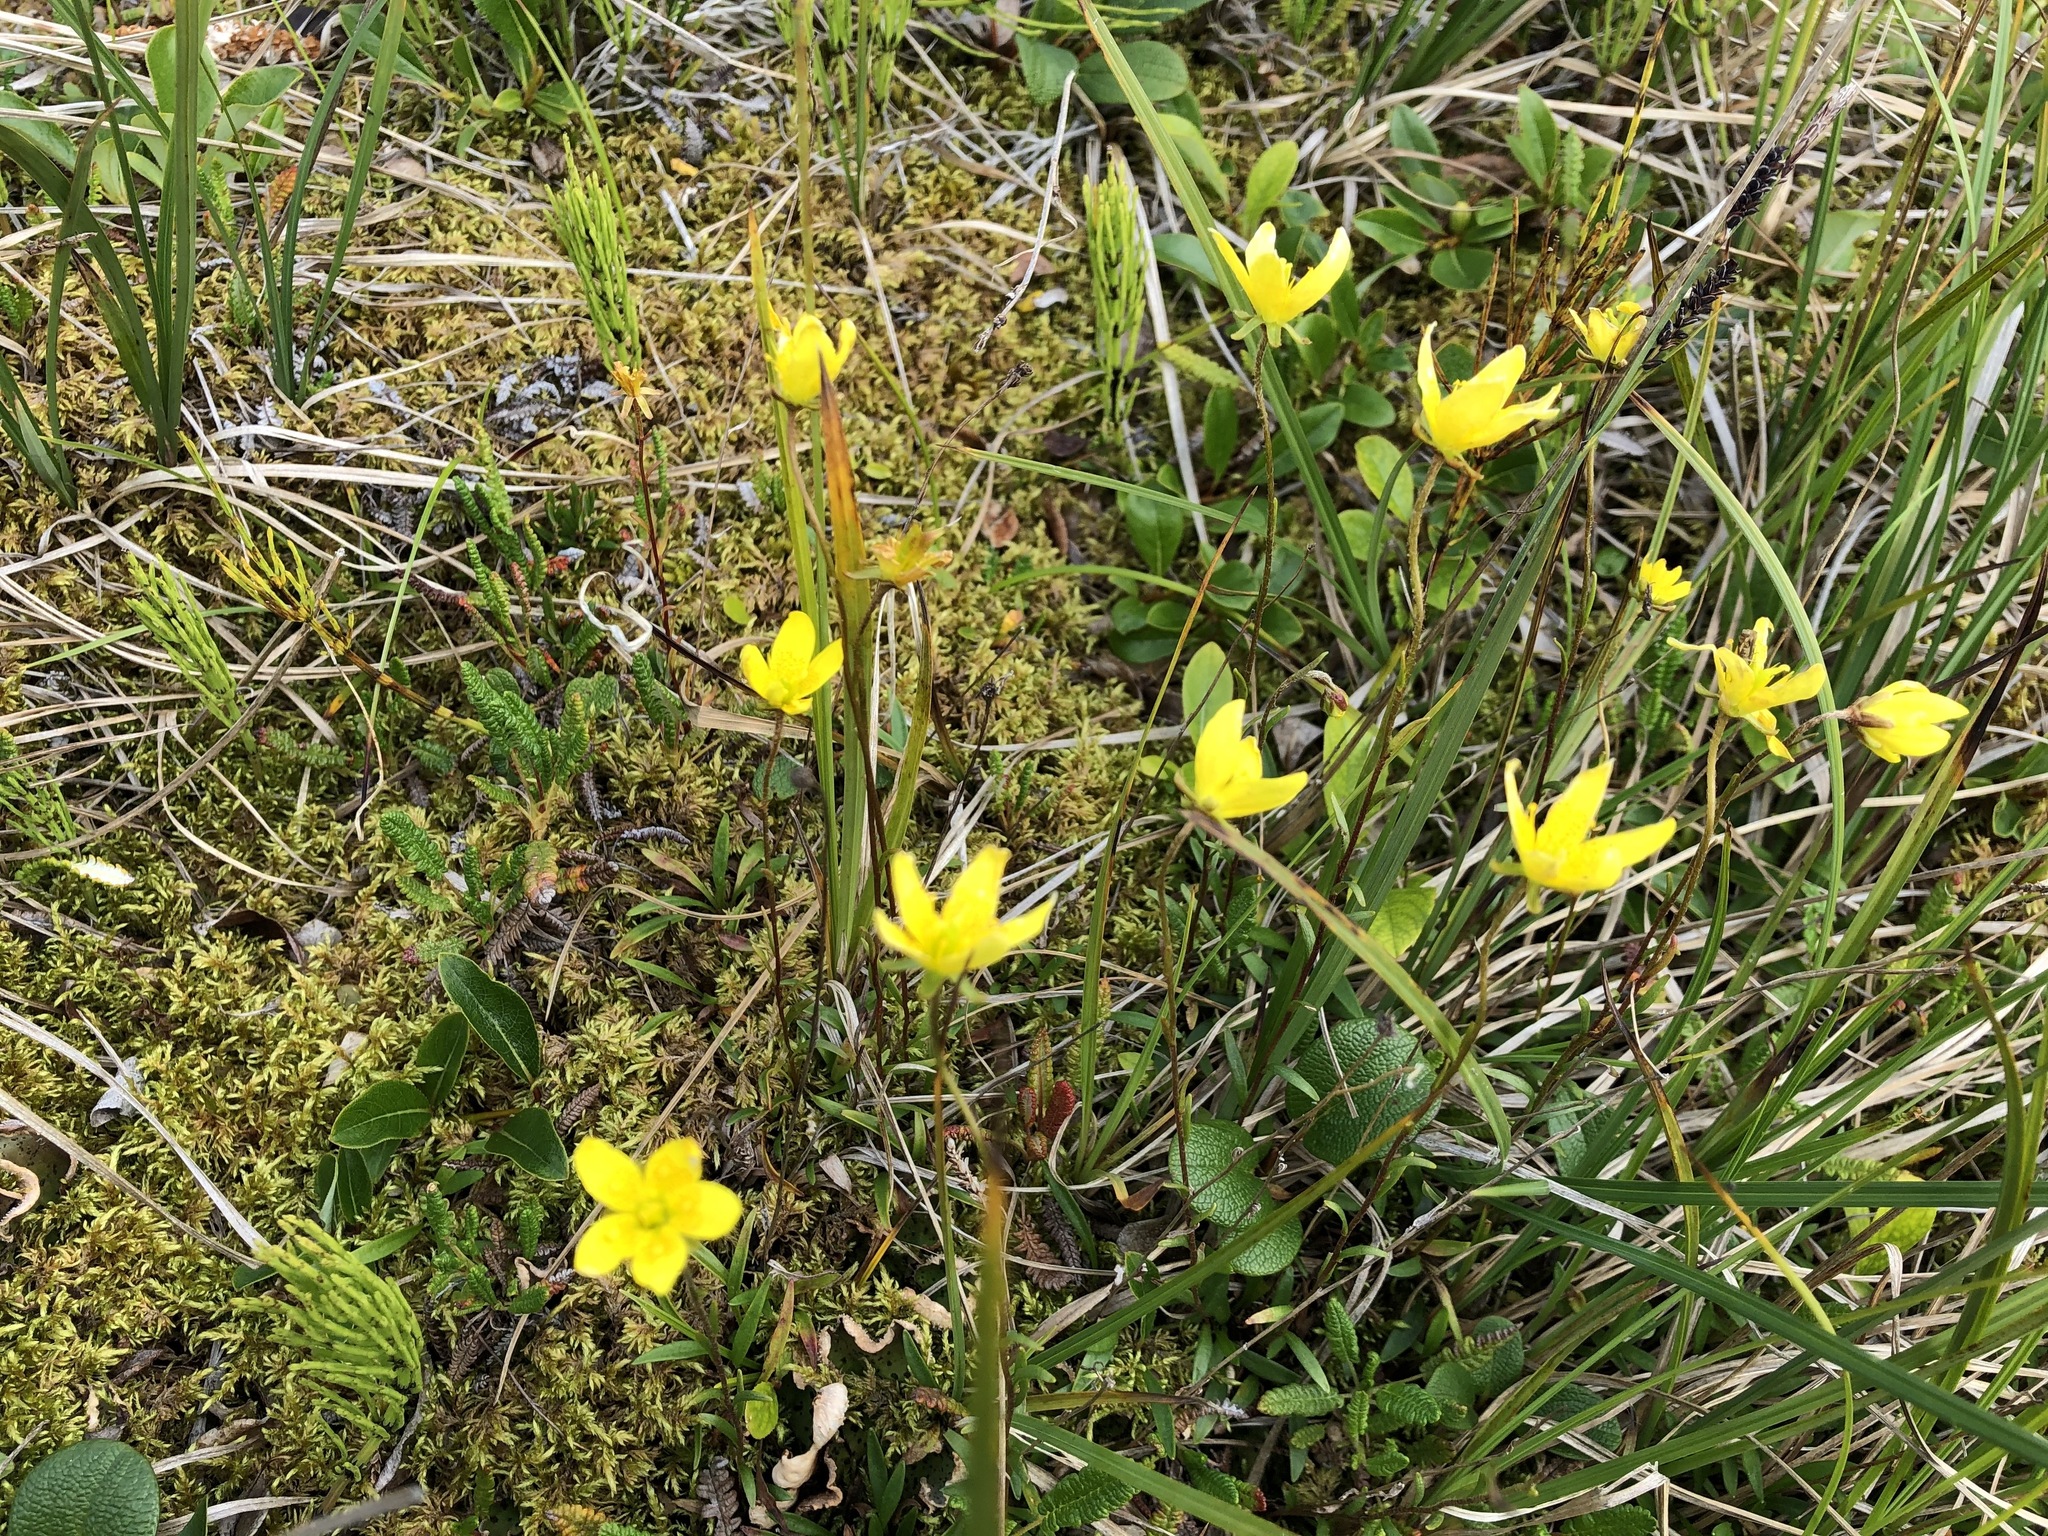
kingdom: Plantae
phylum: Tracheophyta
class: Magnoliopsida
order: Saxifragales
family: Saxifragaceae
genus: Saxifraga
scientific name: Saxifraga hirculus
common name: Yellow marsh saxifrage
